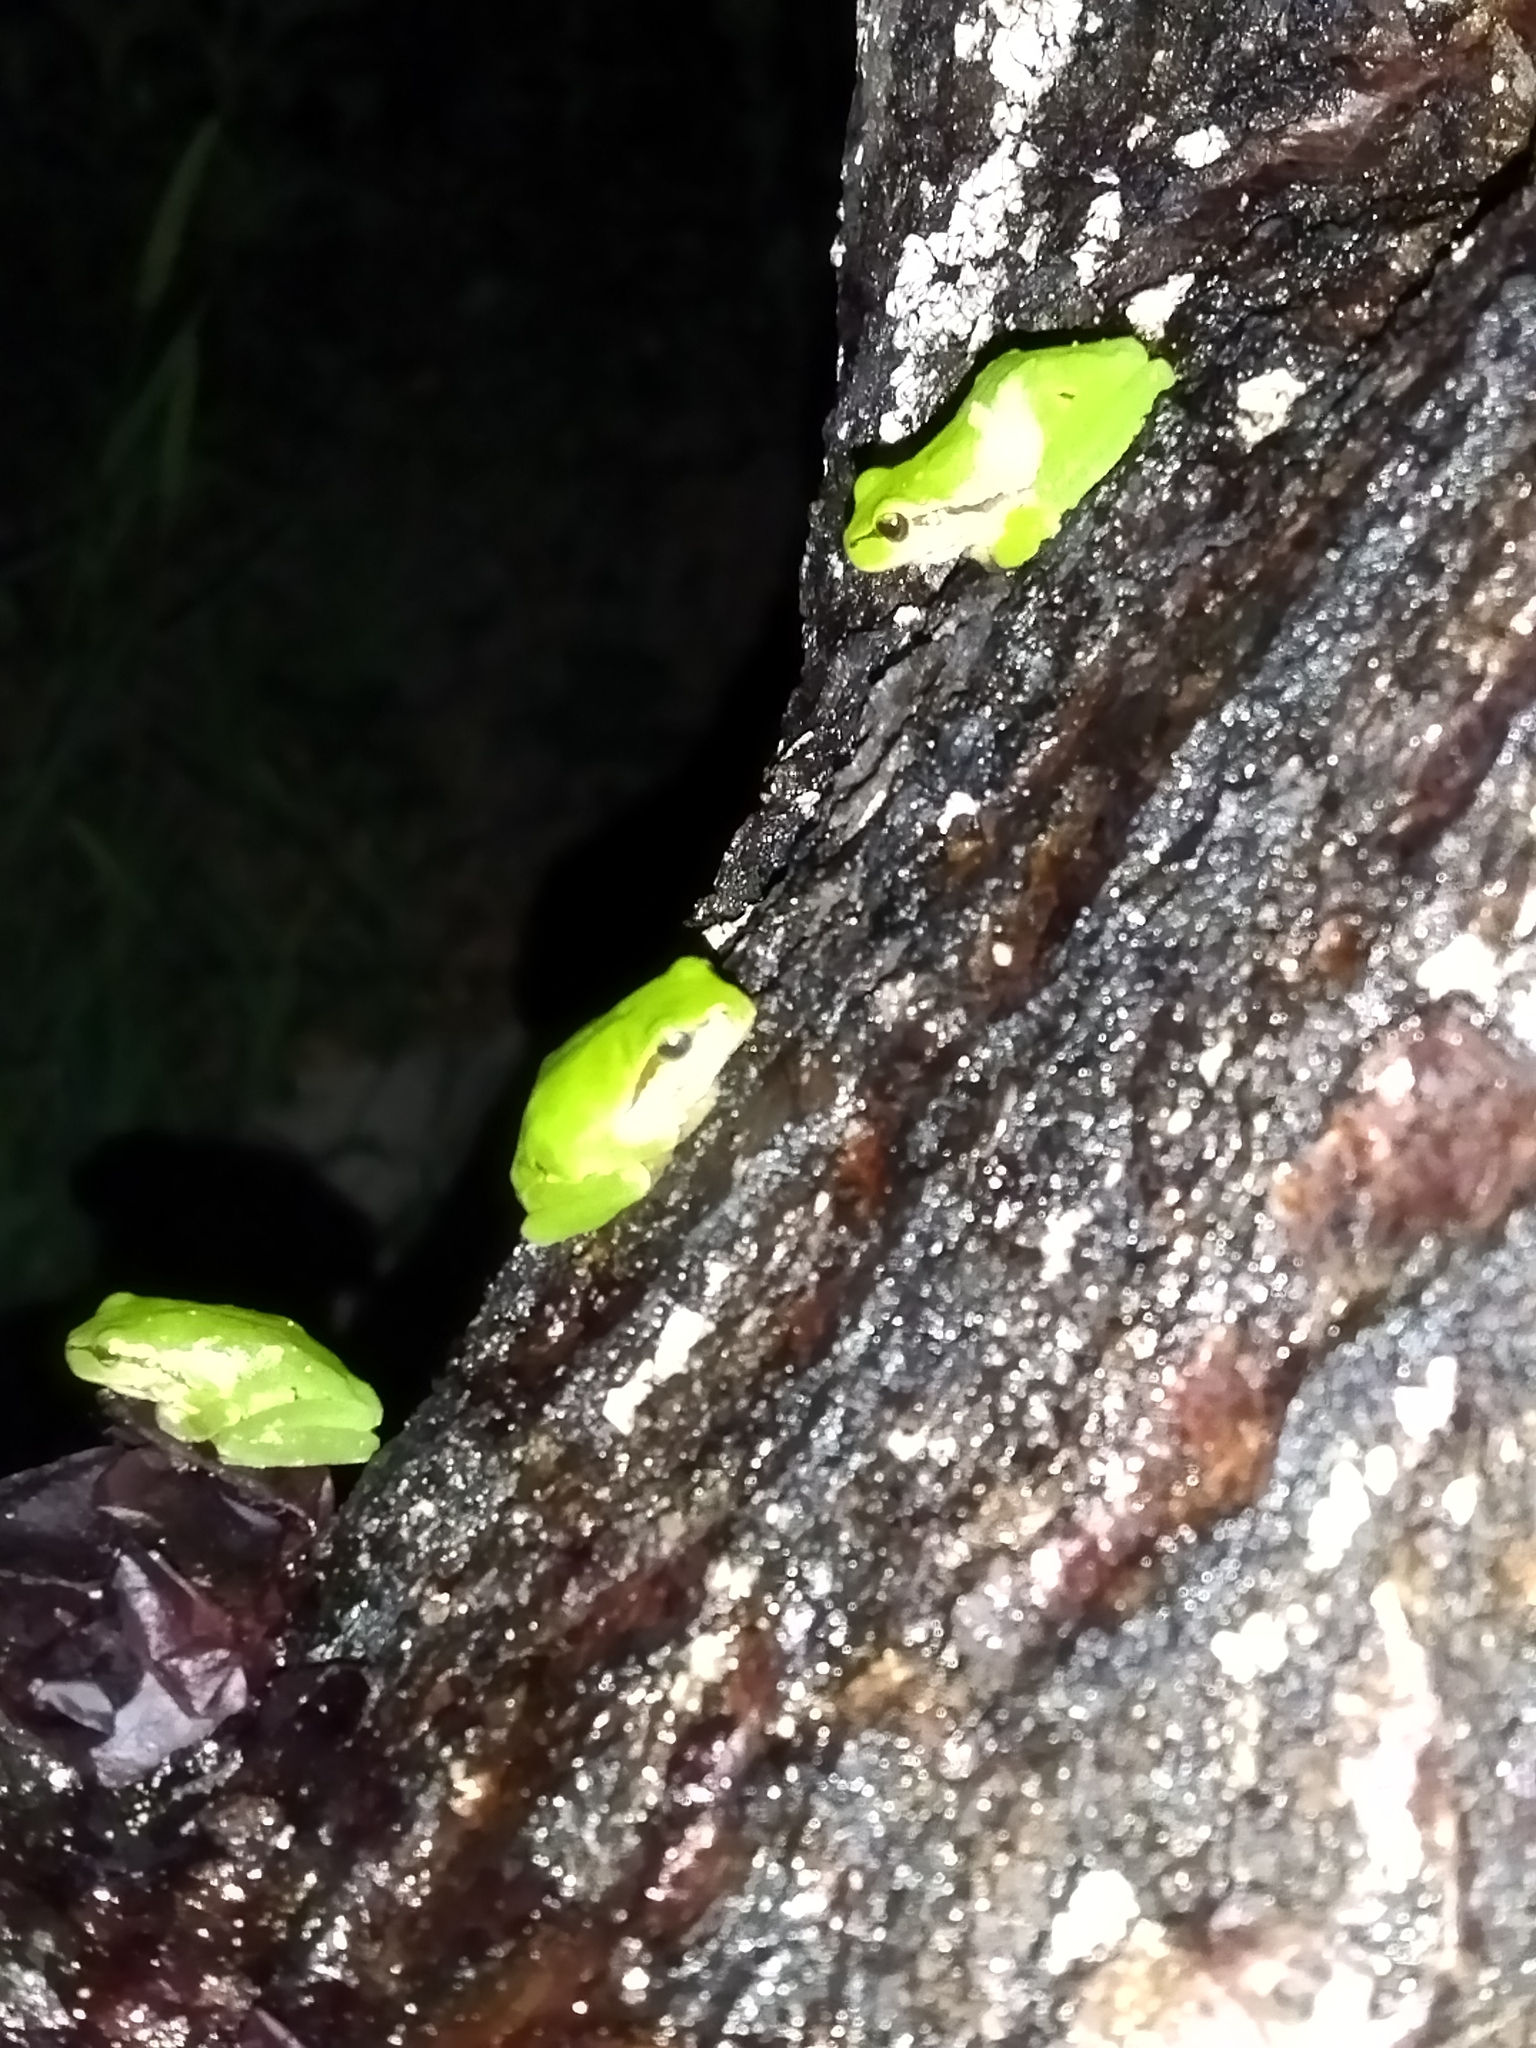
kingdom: Animalia
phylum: Chordata
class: Amphibia
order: Anura
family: Hylidae
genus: Hyla
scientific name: Hyla orientalis
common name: Caucasian treefrog
